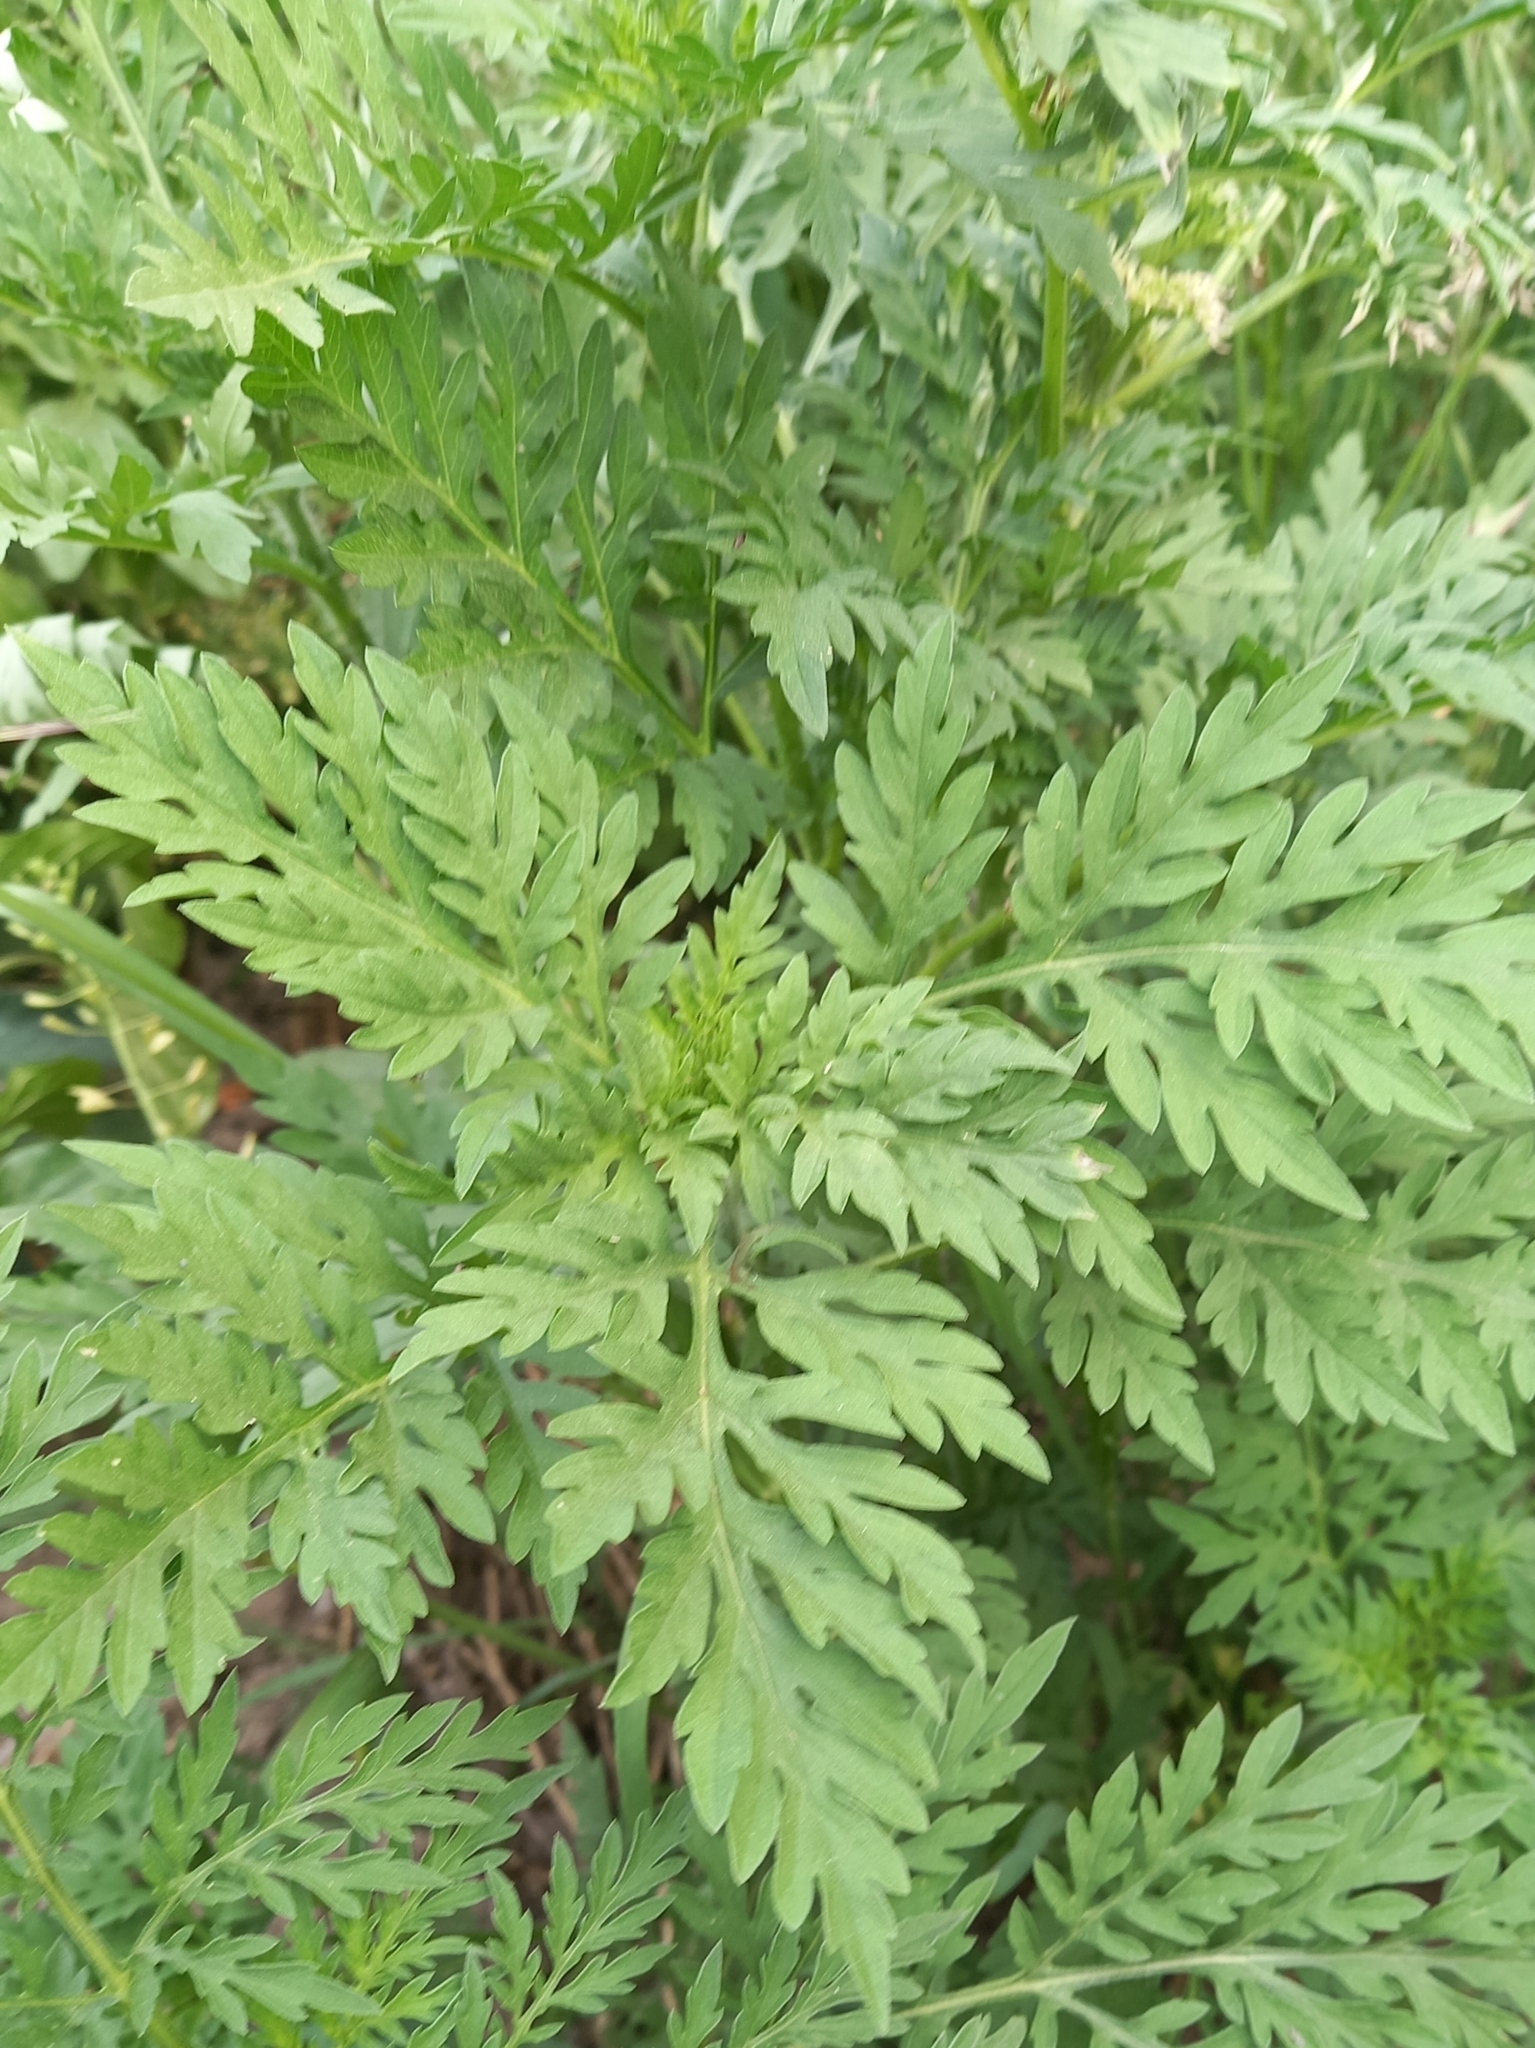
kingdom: Plantae
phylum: Tracheophyta
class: Magnoliopsida
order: Asterales
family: Asteraceae
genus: Ambrosia
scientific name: Ambrosia artemisiifolia
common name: Annual ragweed
